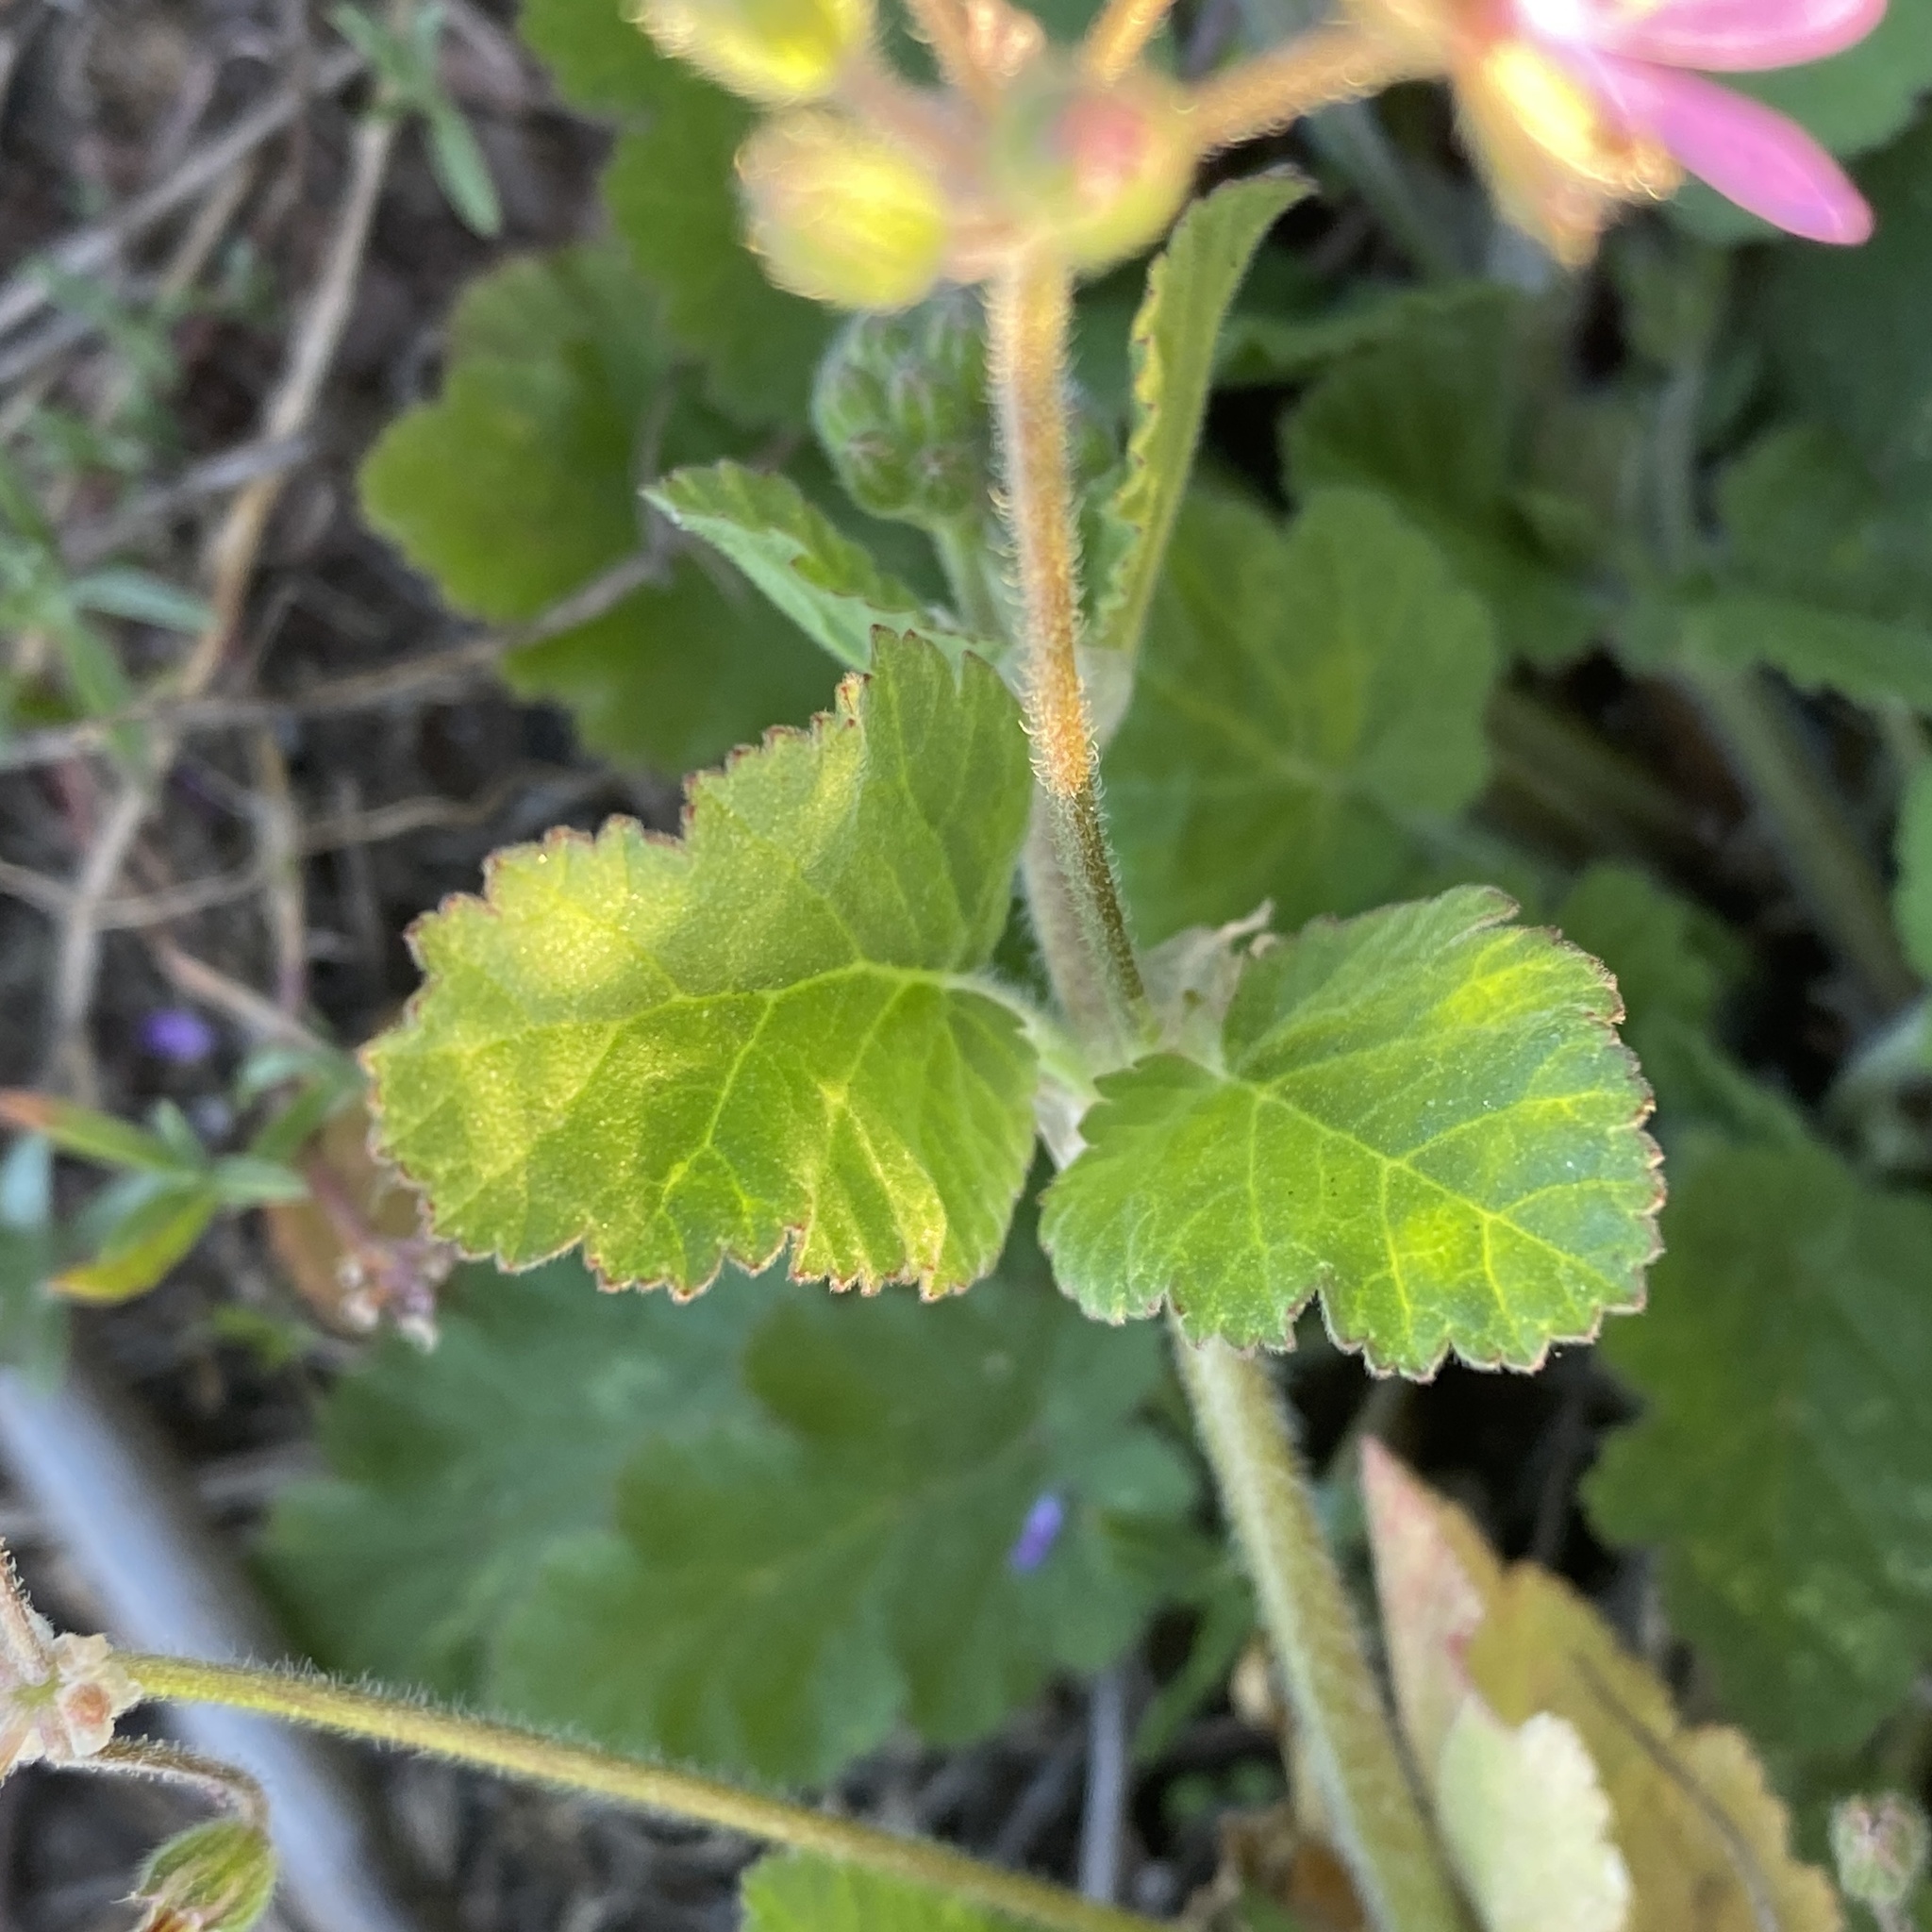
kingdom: Plantae
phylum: Tracheophyta
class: Magnoliopsida
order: Geraniales
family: Geraniaceae
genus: Erodium
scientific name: Erodium malacoides
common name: Soft stork's-bill
